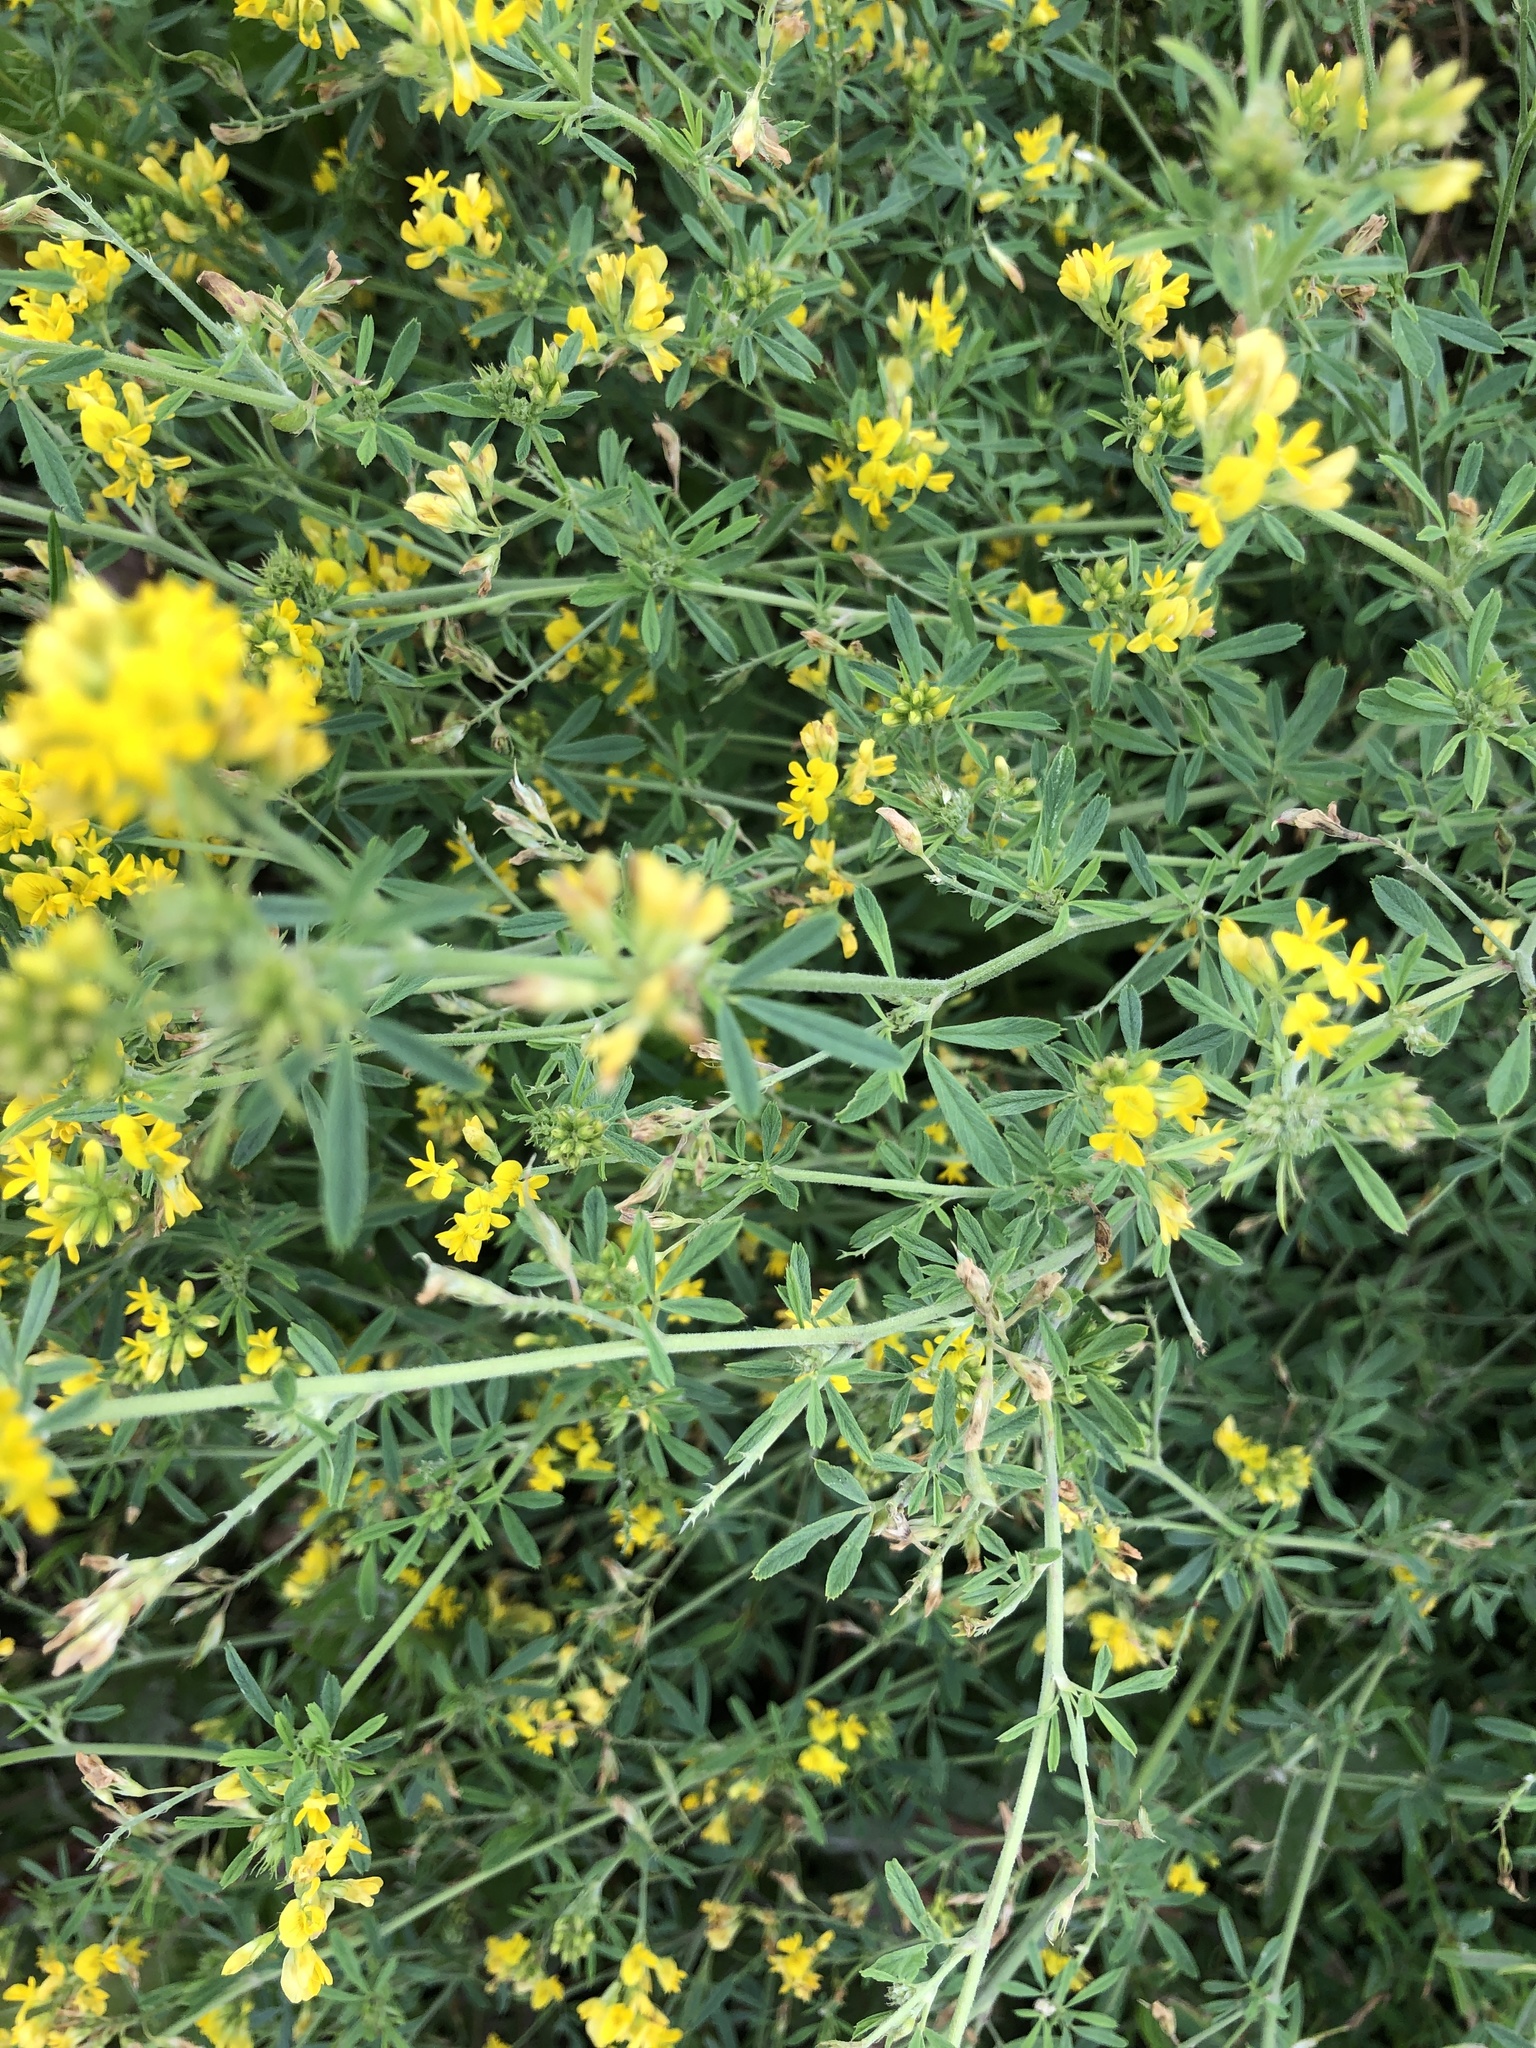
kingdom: Plantae
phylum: Tracheophyta
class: Magnoliopsida
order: Fabales
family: Fabaceae
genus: Medicago
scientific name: Medicago falcata
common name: Sickle medick
